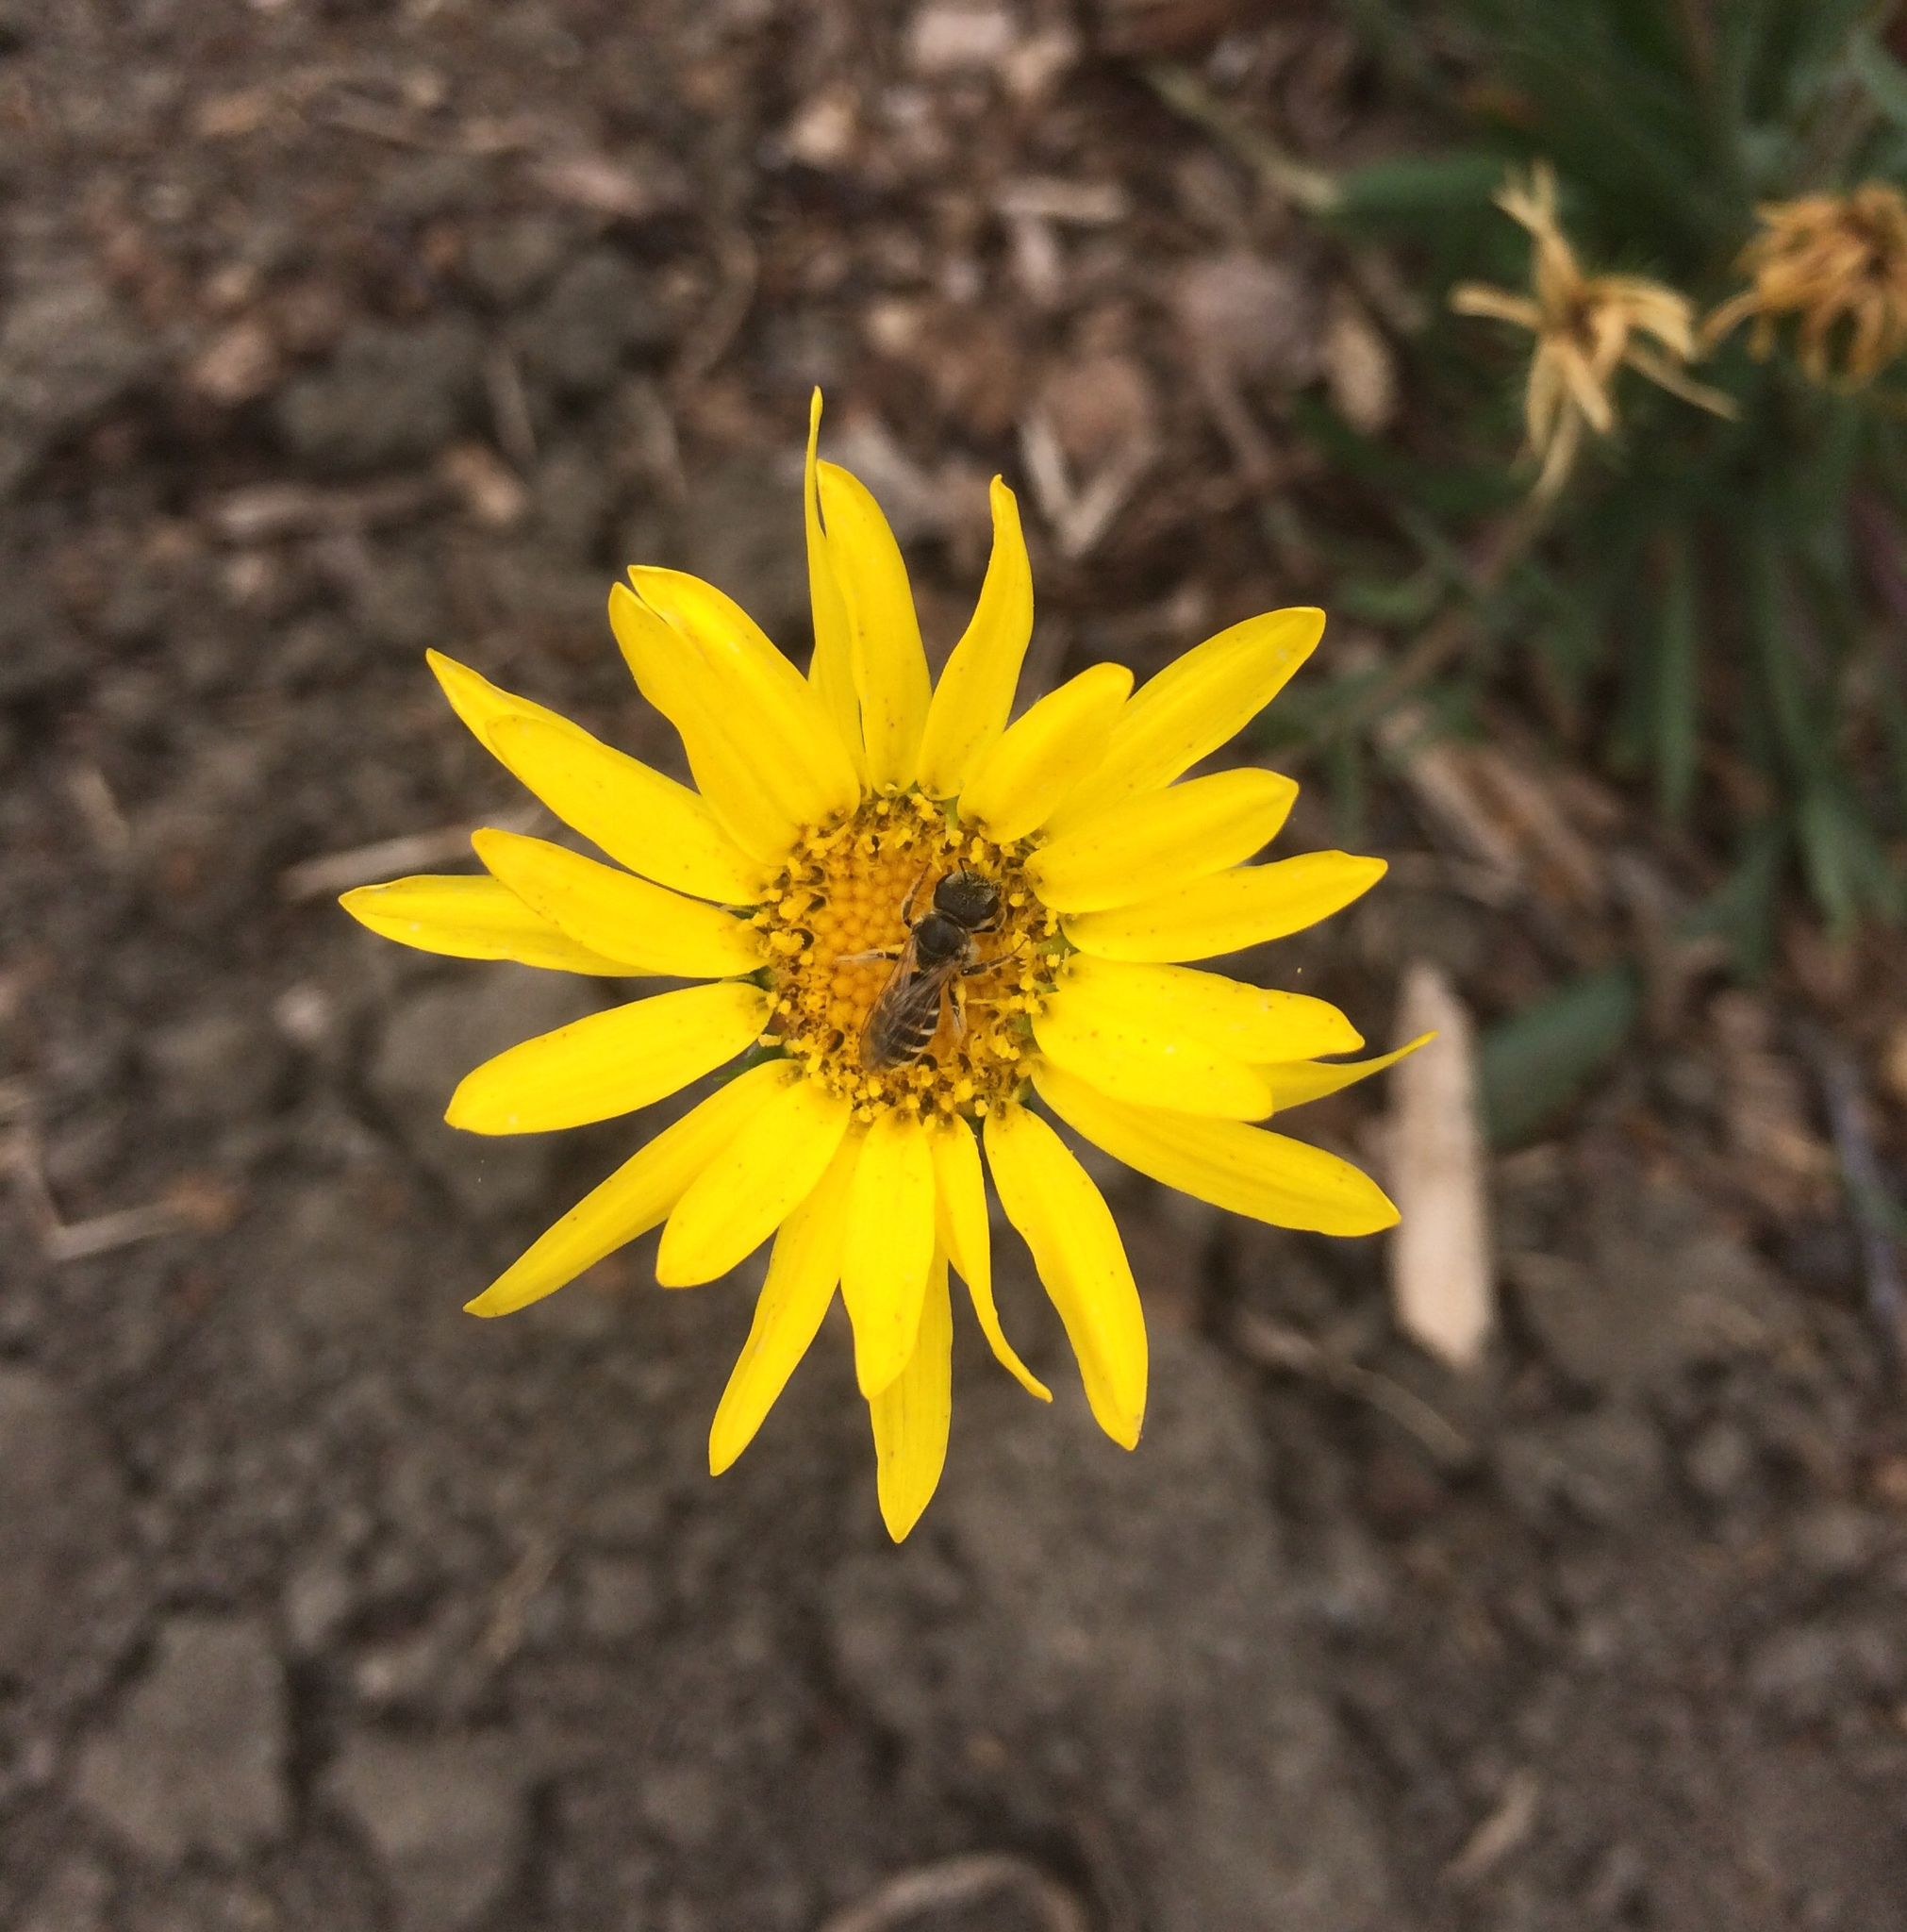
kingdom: Animalia
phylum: Arthropoda
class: Insecta
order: Hymenoptera
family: Halictidae
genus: Halictus
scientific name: Halictus ligatus
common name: Ligated furrow bee
